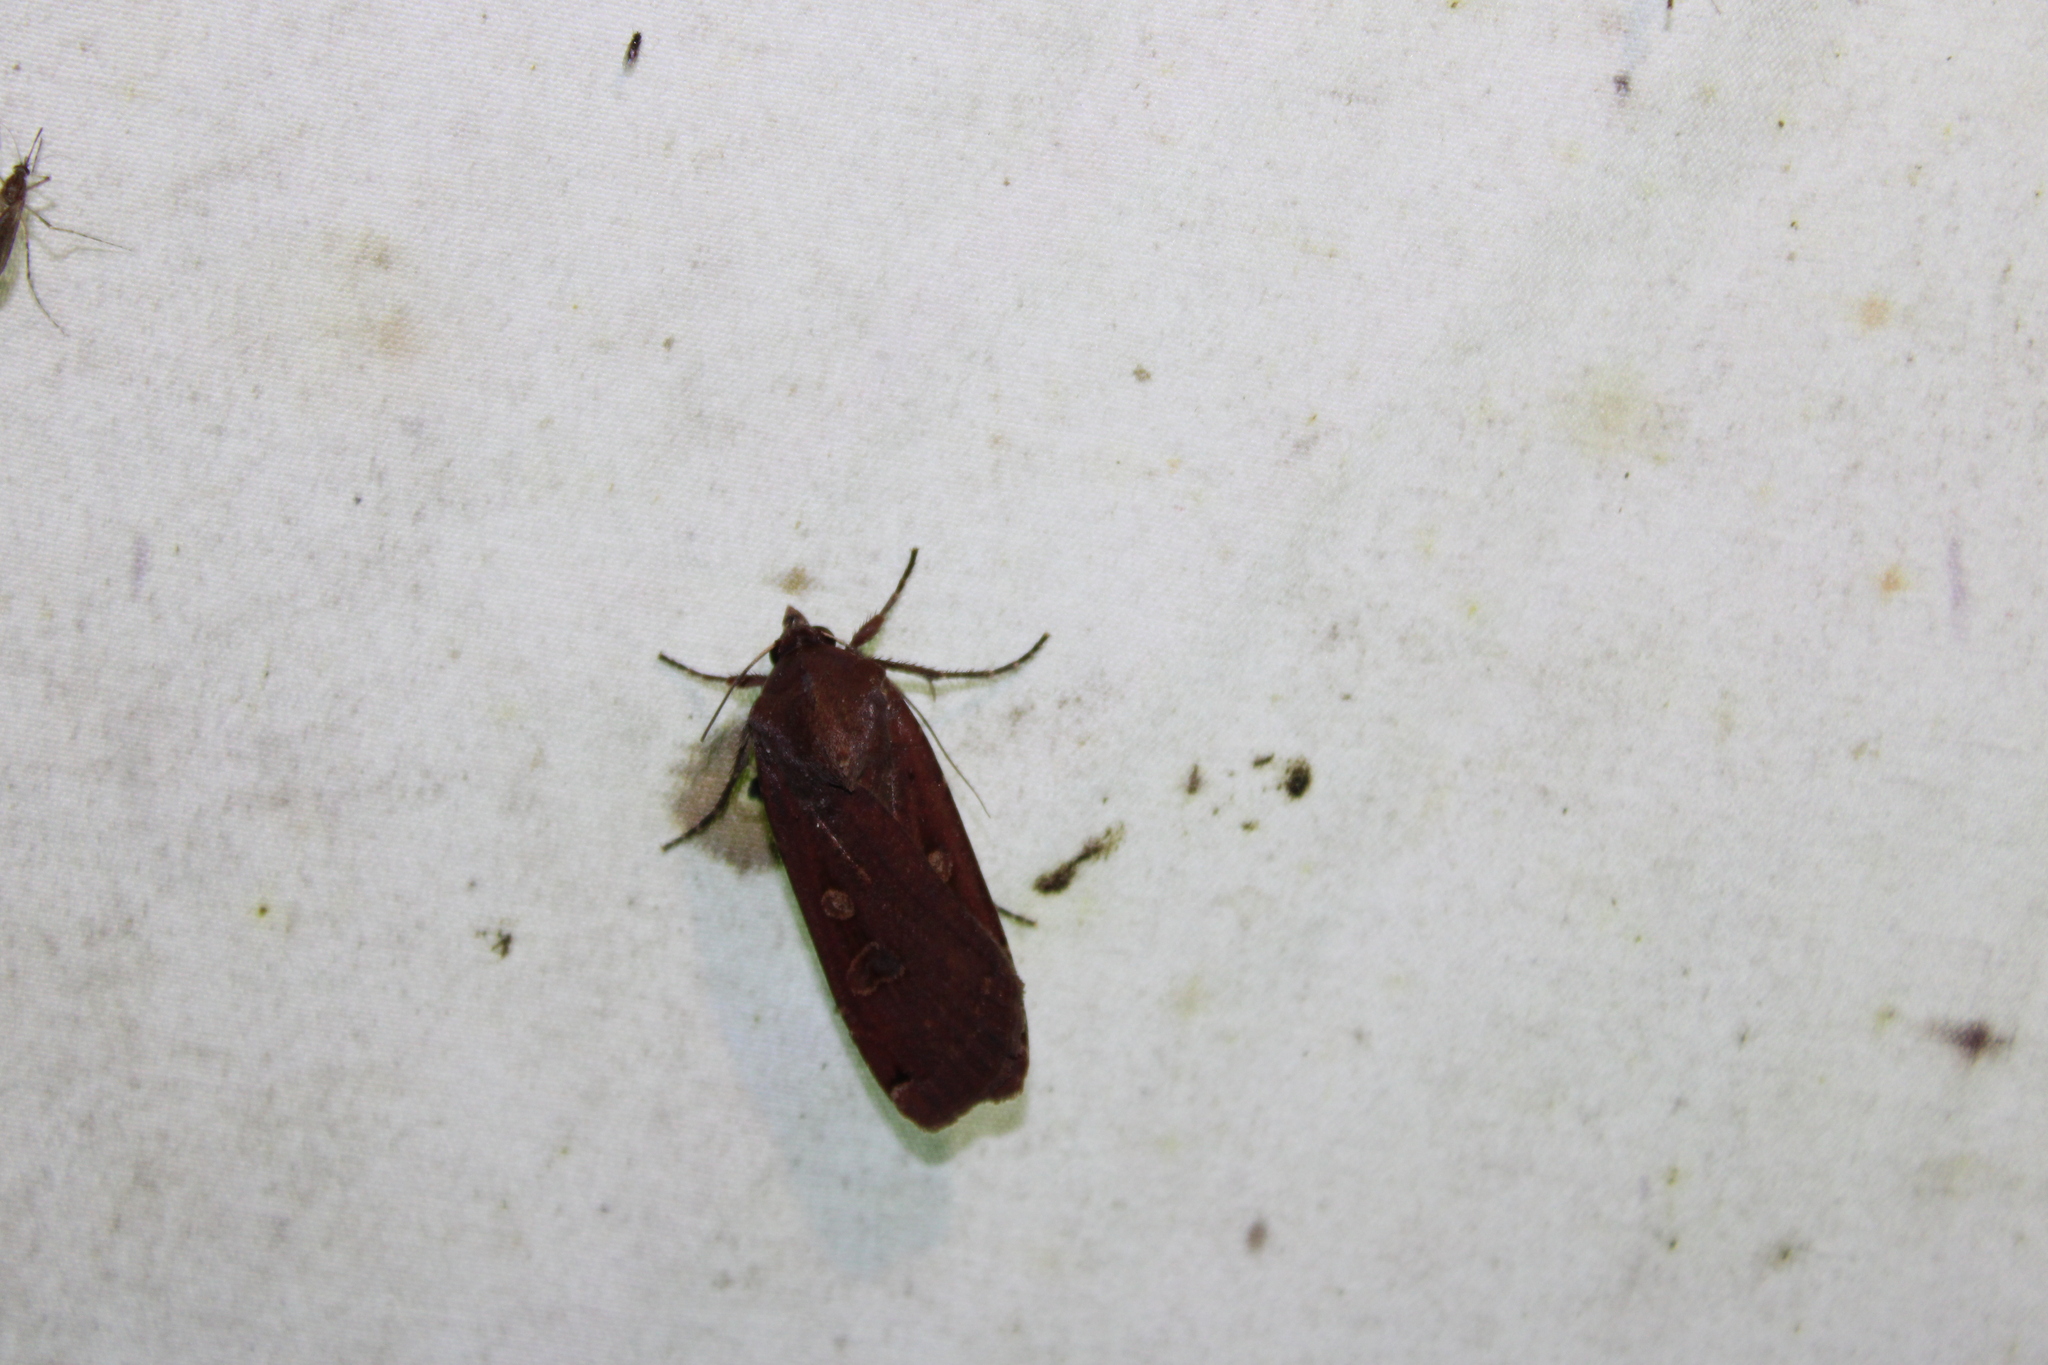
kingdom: Animalia
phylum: Arthropoda
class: Insecta
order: Lepidoptera
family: Noctuidae
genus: Noctua
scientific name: Noctua pronuba
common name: Large yellow underwing
